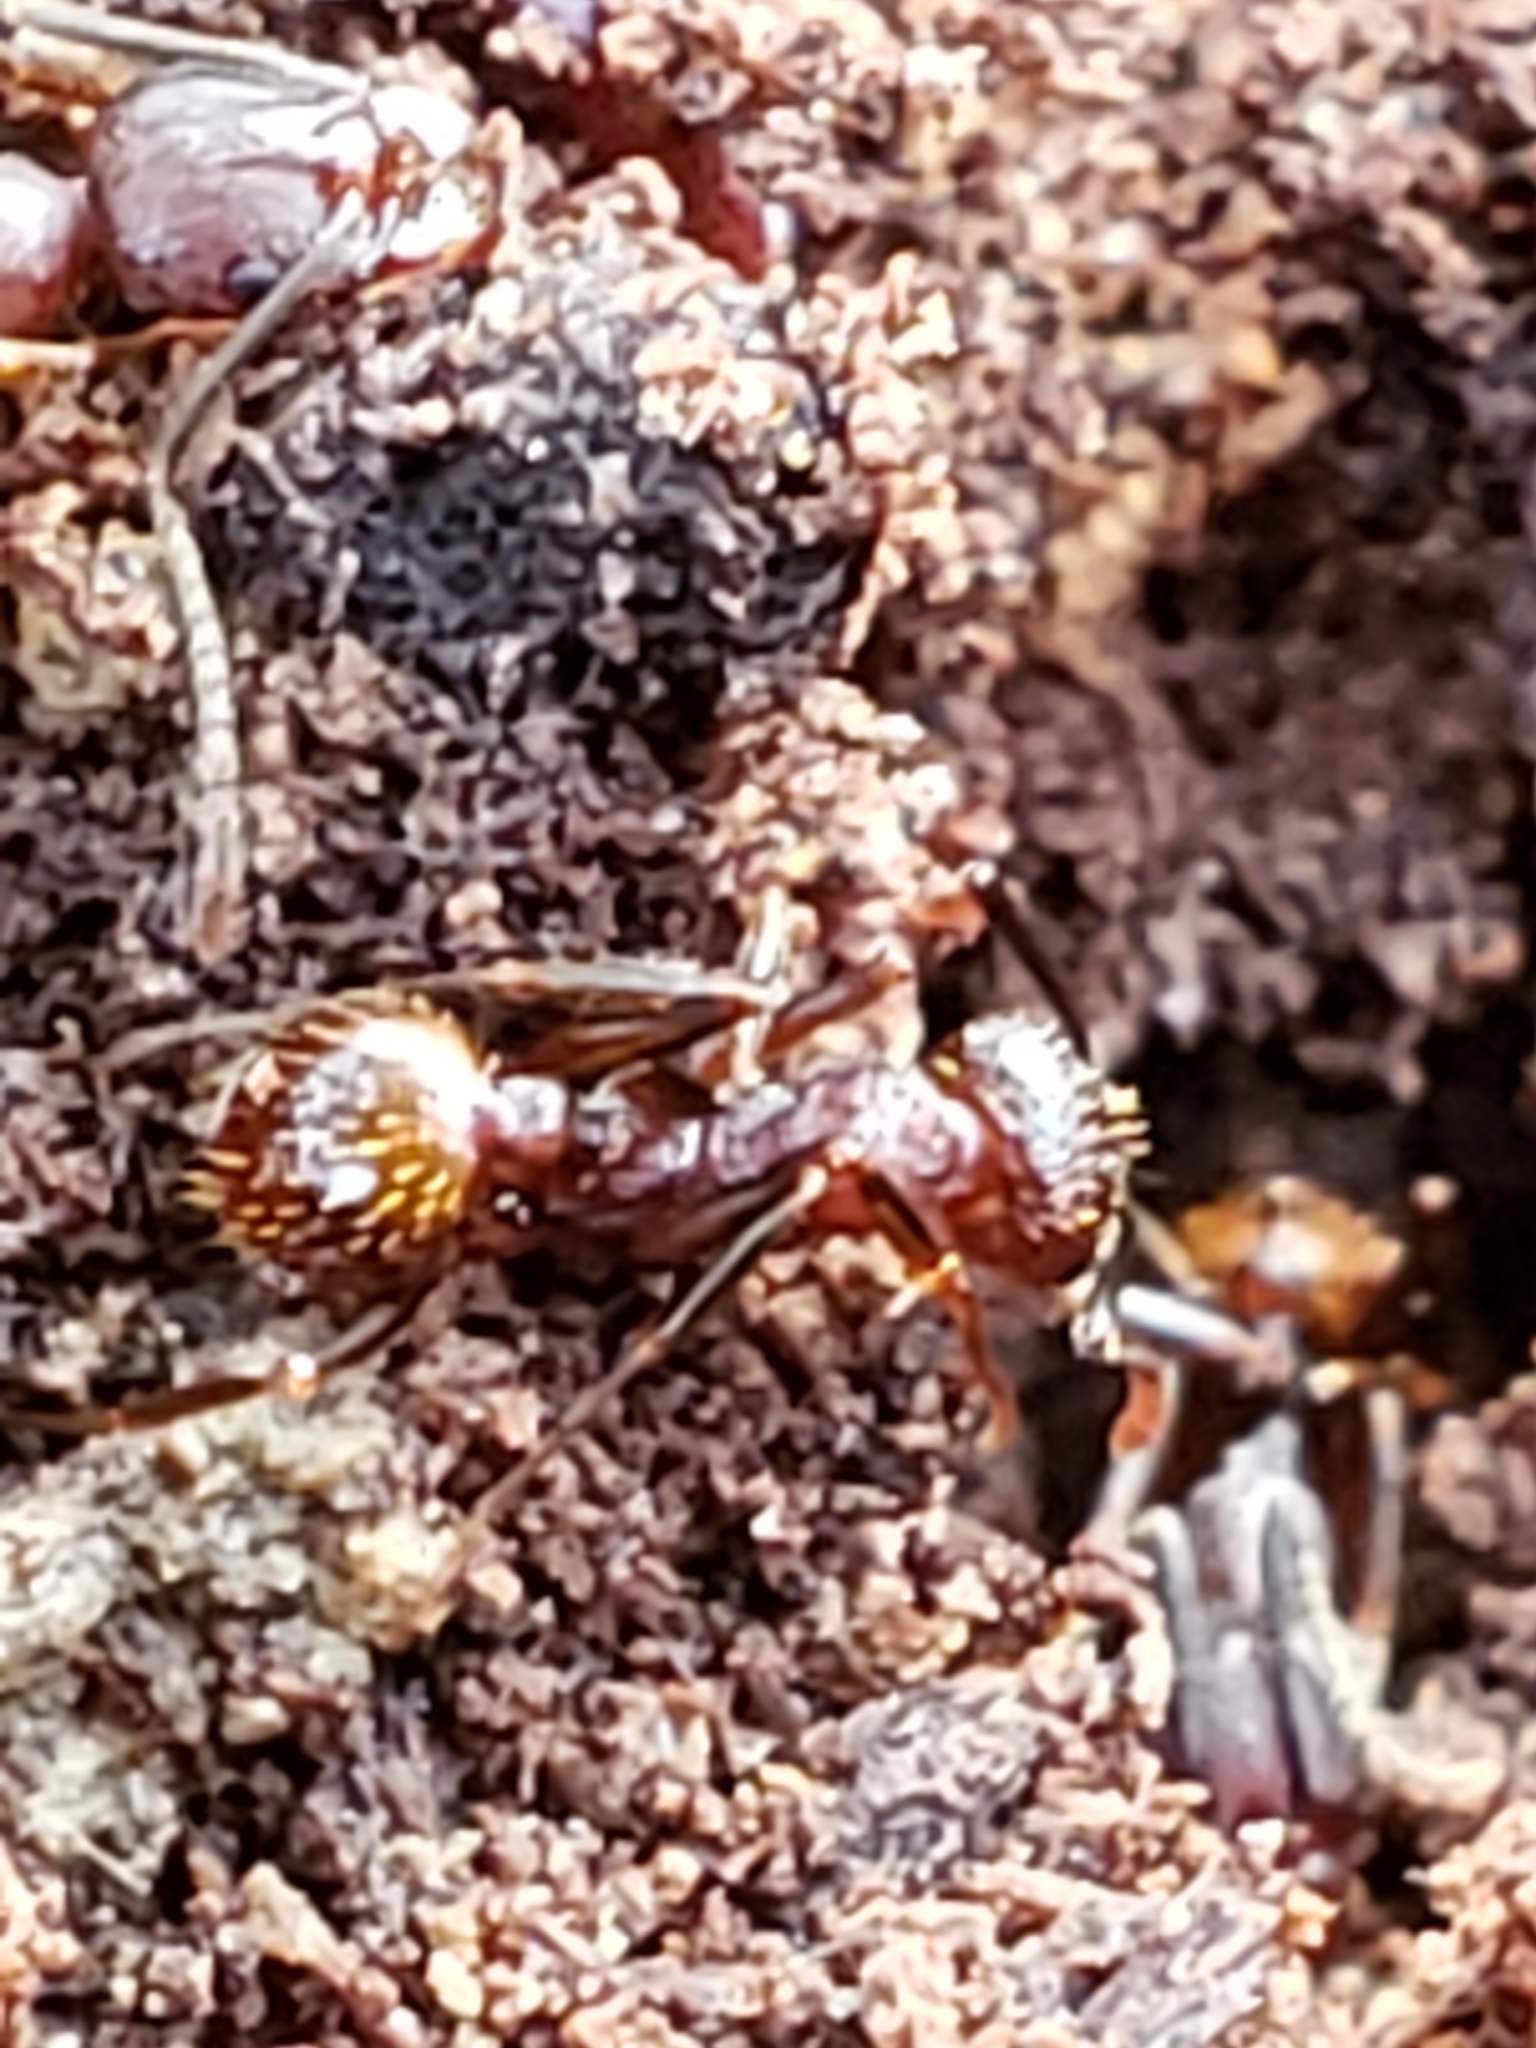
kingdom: Animalia
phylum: Arthropoda
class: Insecta
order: Hymenoptera
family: Formicidae
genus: Aphaenogaster
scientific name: Aphaenogaster fulva
